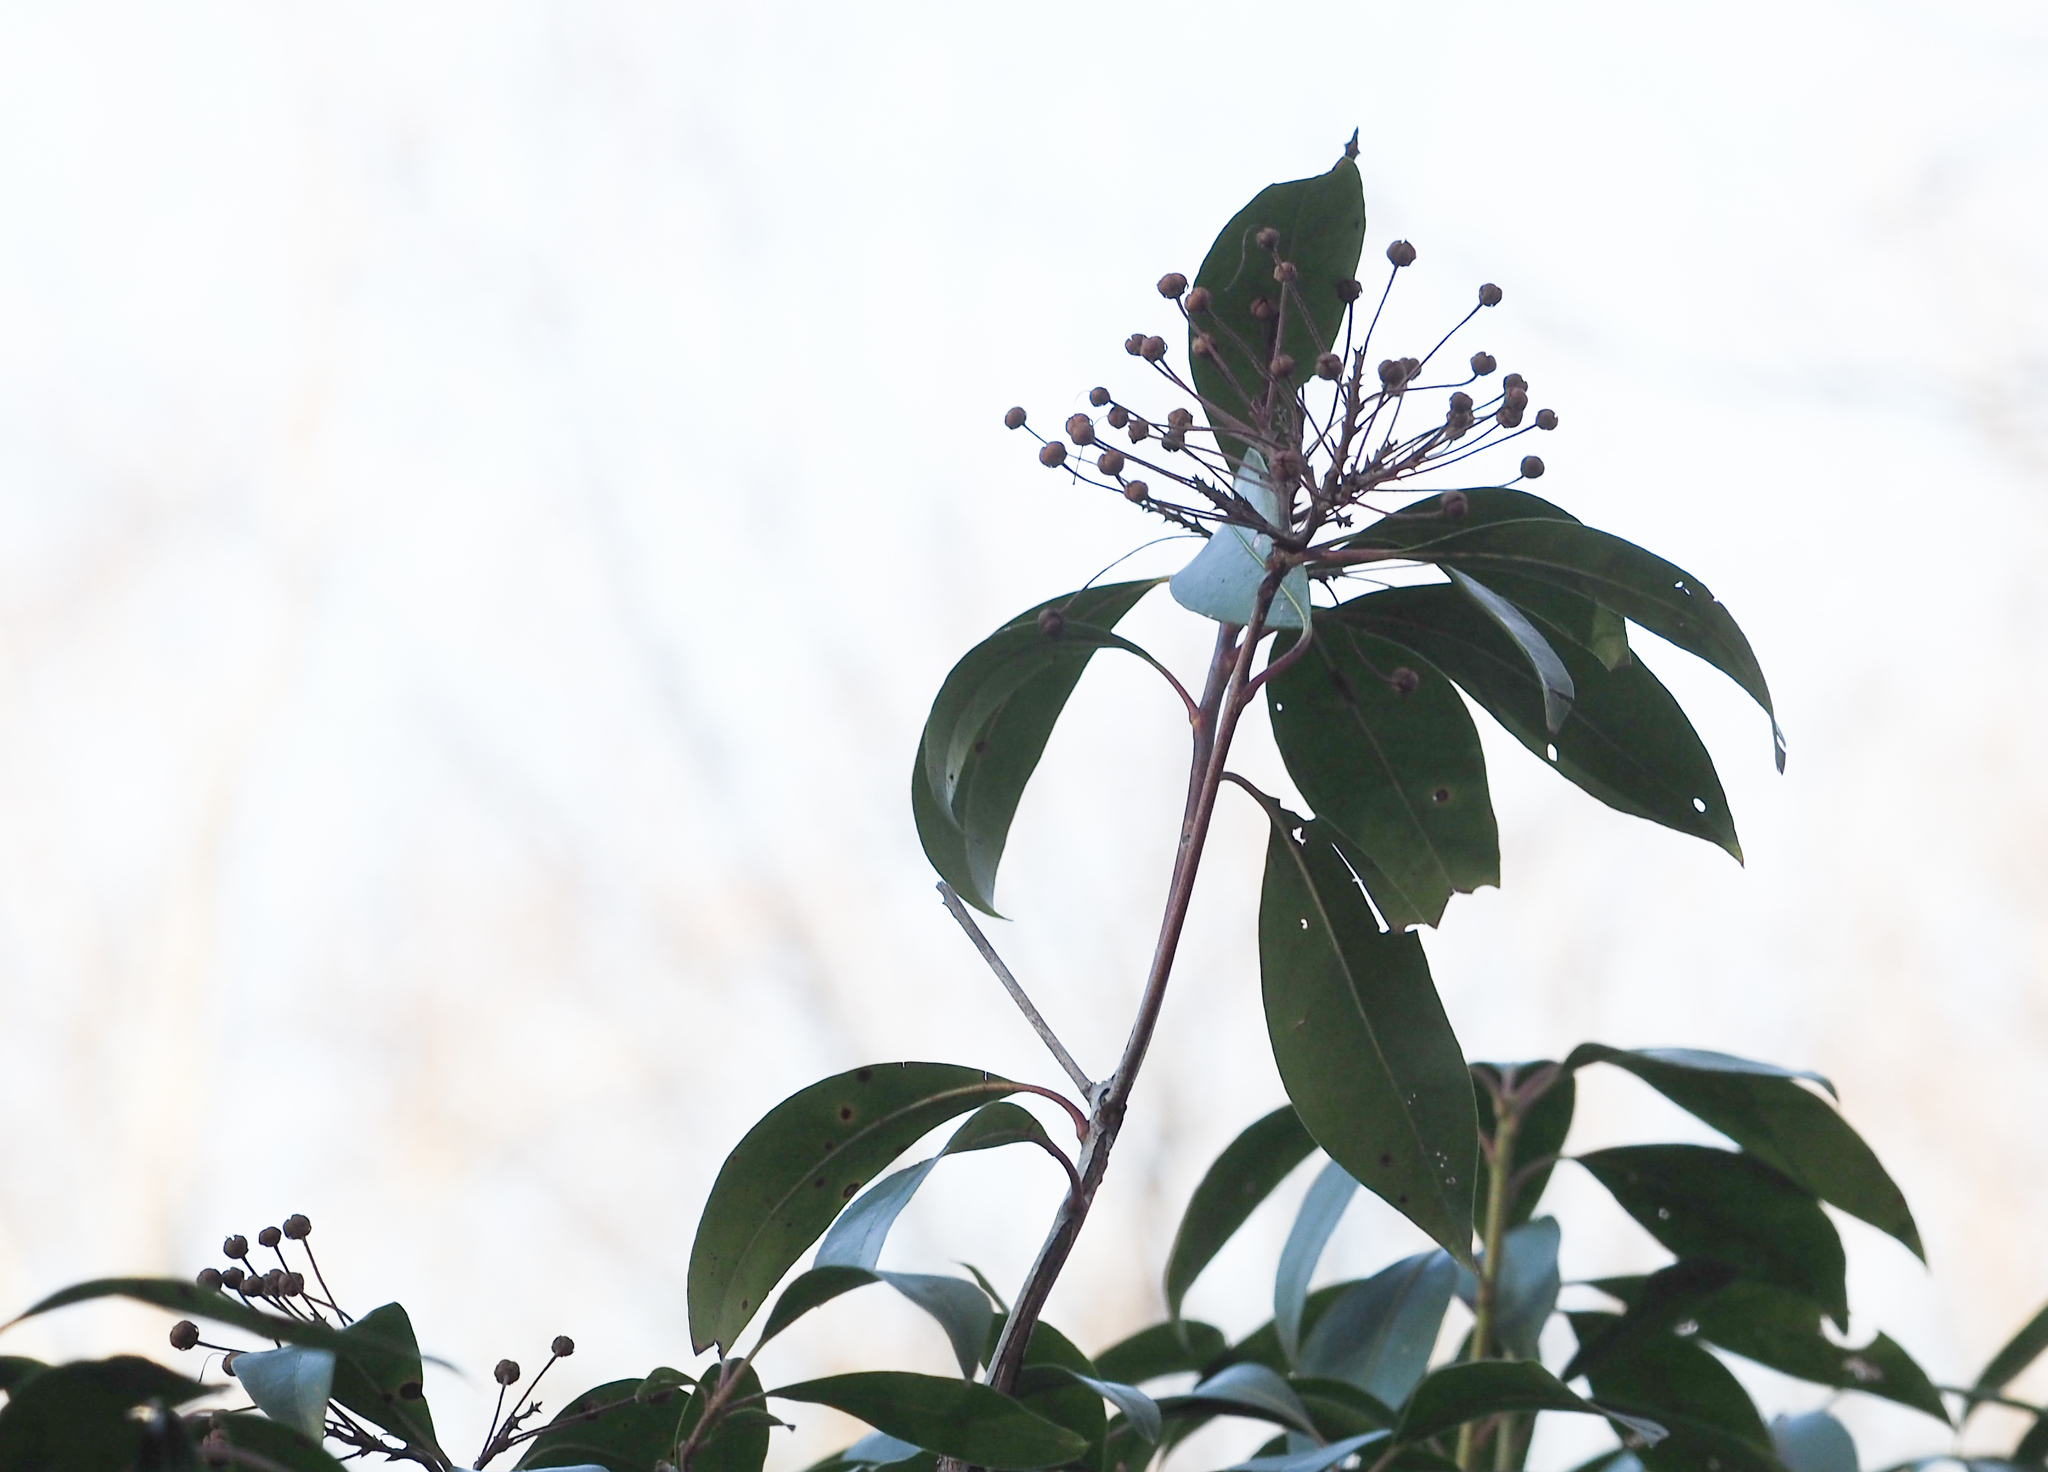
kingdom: Plantae
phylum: Tracheophyta
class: Magnoliopsida
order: Ericales
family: Ericaceae
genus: Kalmia
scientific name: Kalmia latifolia
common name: Mountain-laurel
